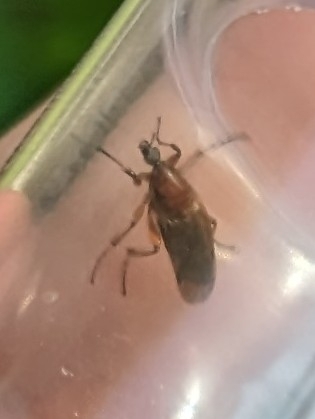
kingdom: Animalia
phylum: Arthropoda
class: Insecta
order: Diptera
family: Bibionidae
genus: Bibio
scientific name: Bibio articulatus
